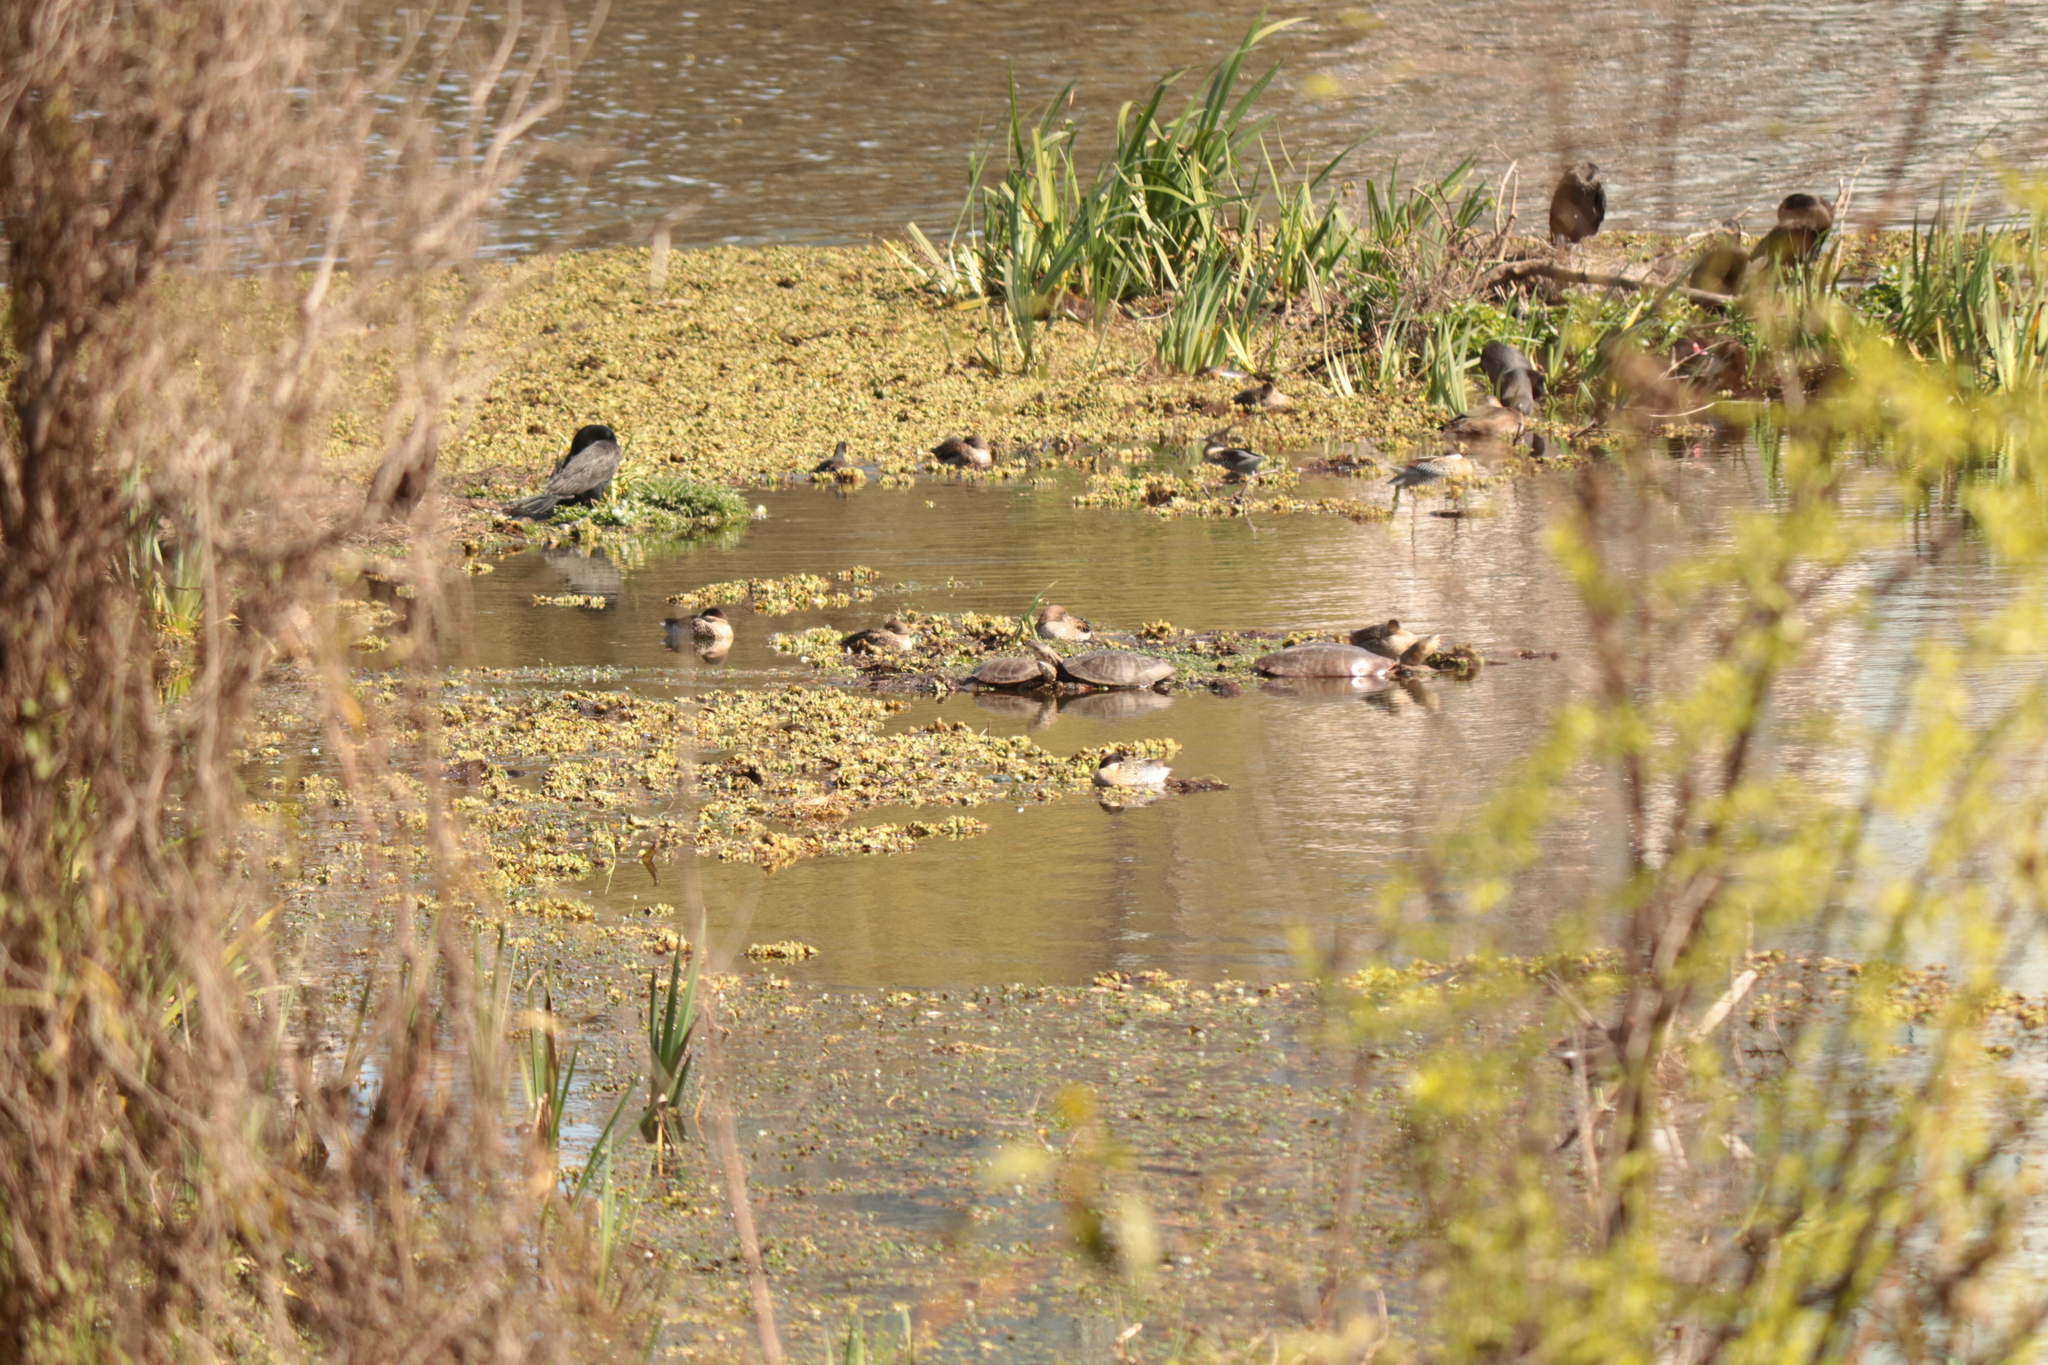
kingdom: Animalia
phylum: Chordata
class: Testudines
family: Chelidae
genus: Phrynops
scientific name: Phrynops hilarii
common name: Side-necked turtle of saint hillaire
